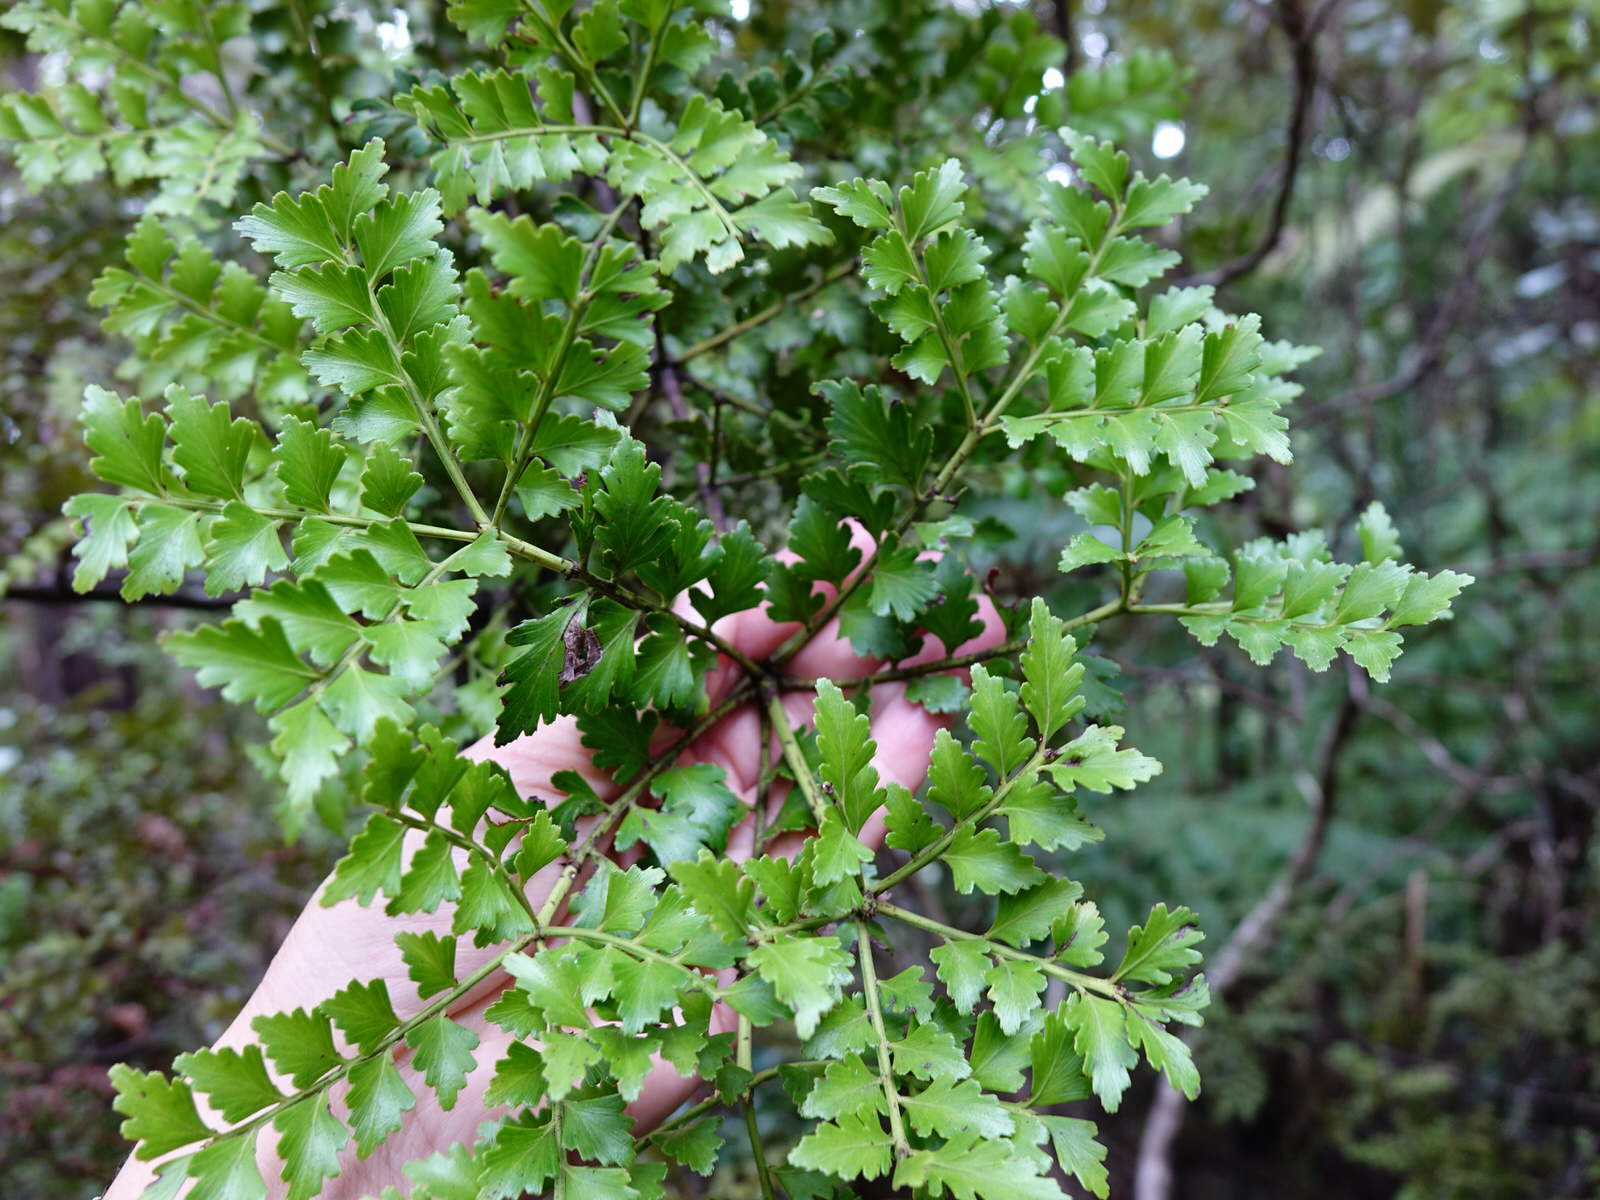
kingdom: Plantae
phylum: Tracheophyta
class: Pinopsida
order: Pinales
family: Phyllocladaceae
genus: Phyllocladus
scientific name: Phyllocladus trichomanoides
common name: Celery pine
